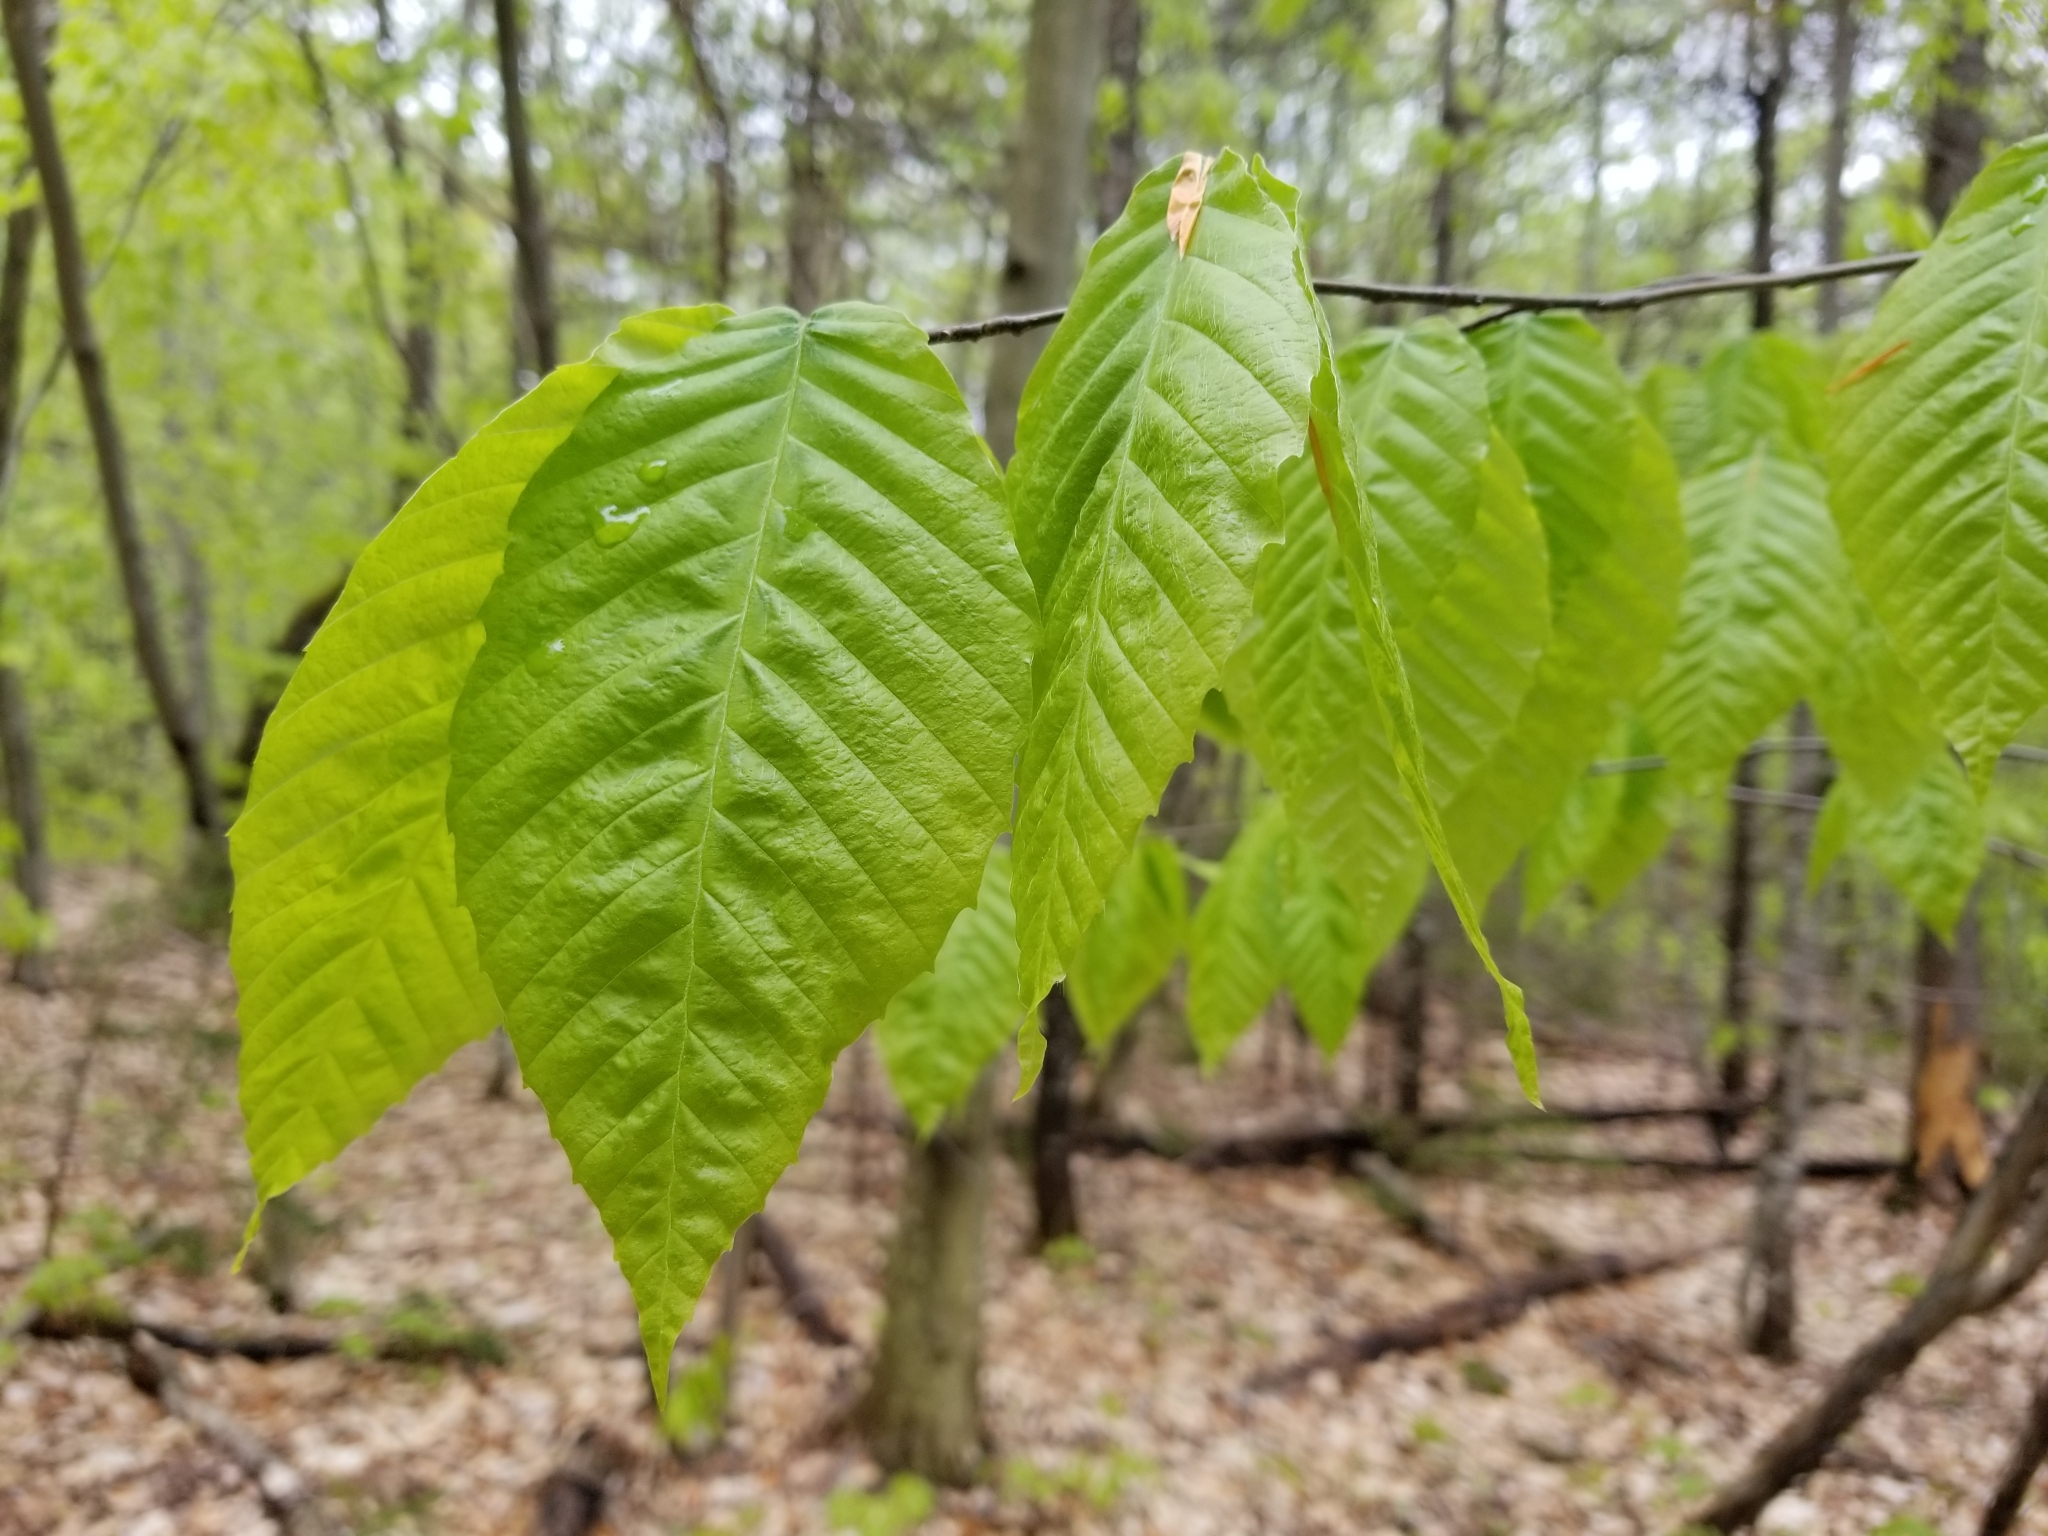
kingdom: Plantae
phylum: Tracheophyta
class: Magnoliopsida
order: Fagales
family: Fagaceae
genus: Fagus
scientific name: Fagus grandifolia
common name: American beech
